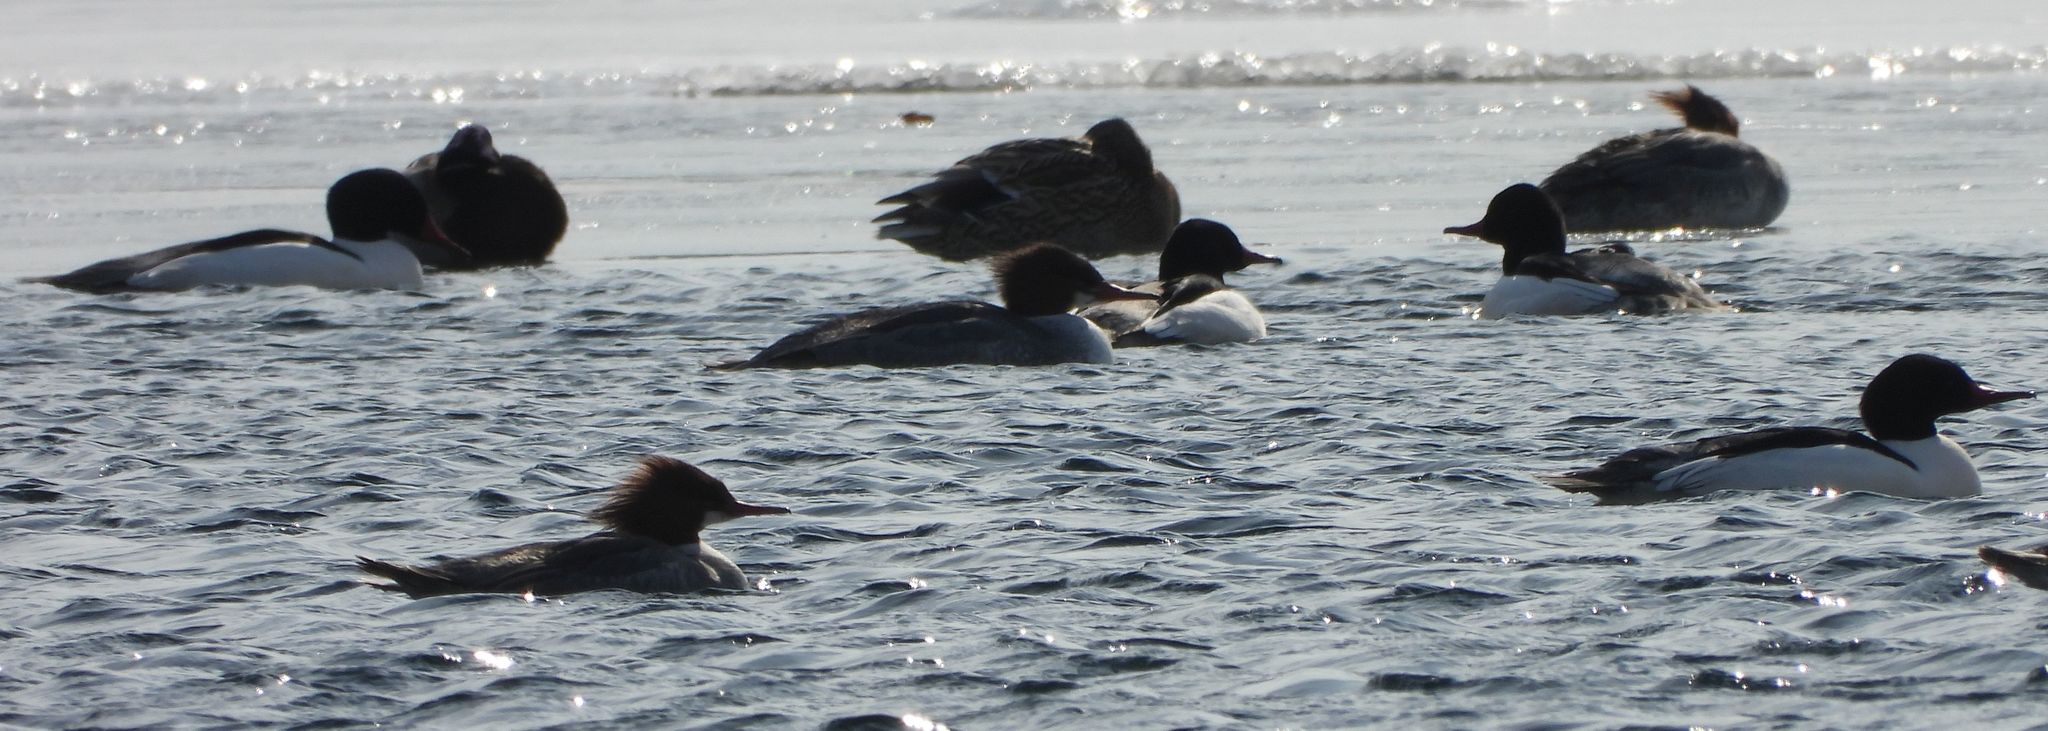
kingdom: Animalia
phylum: Chordata
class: Aves
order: Anseriformes
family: Anatidae
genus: Mergus
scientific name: Mergus merganser
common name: Common merganser
